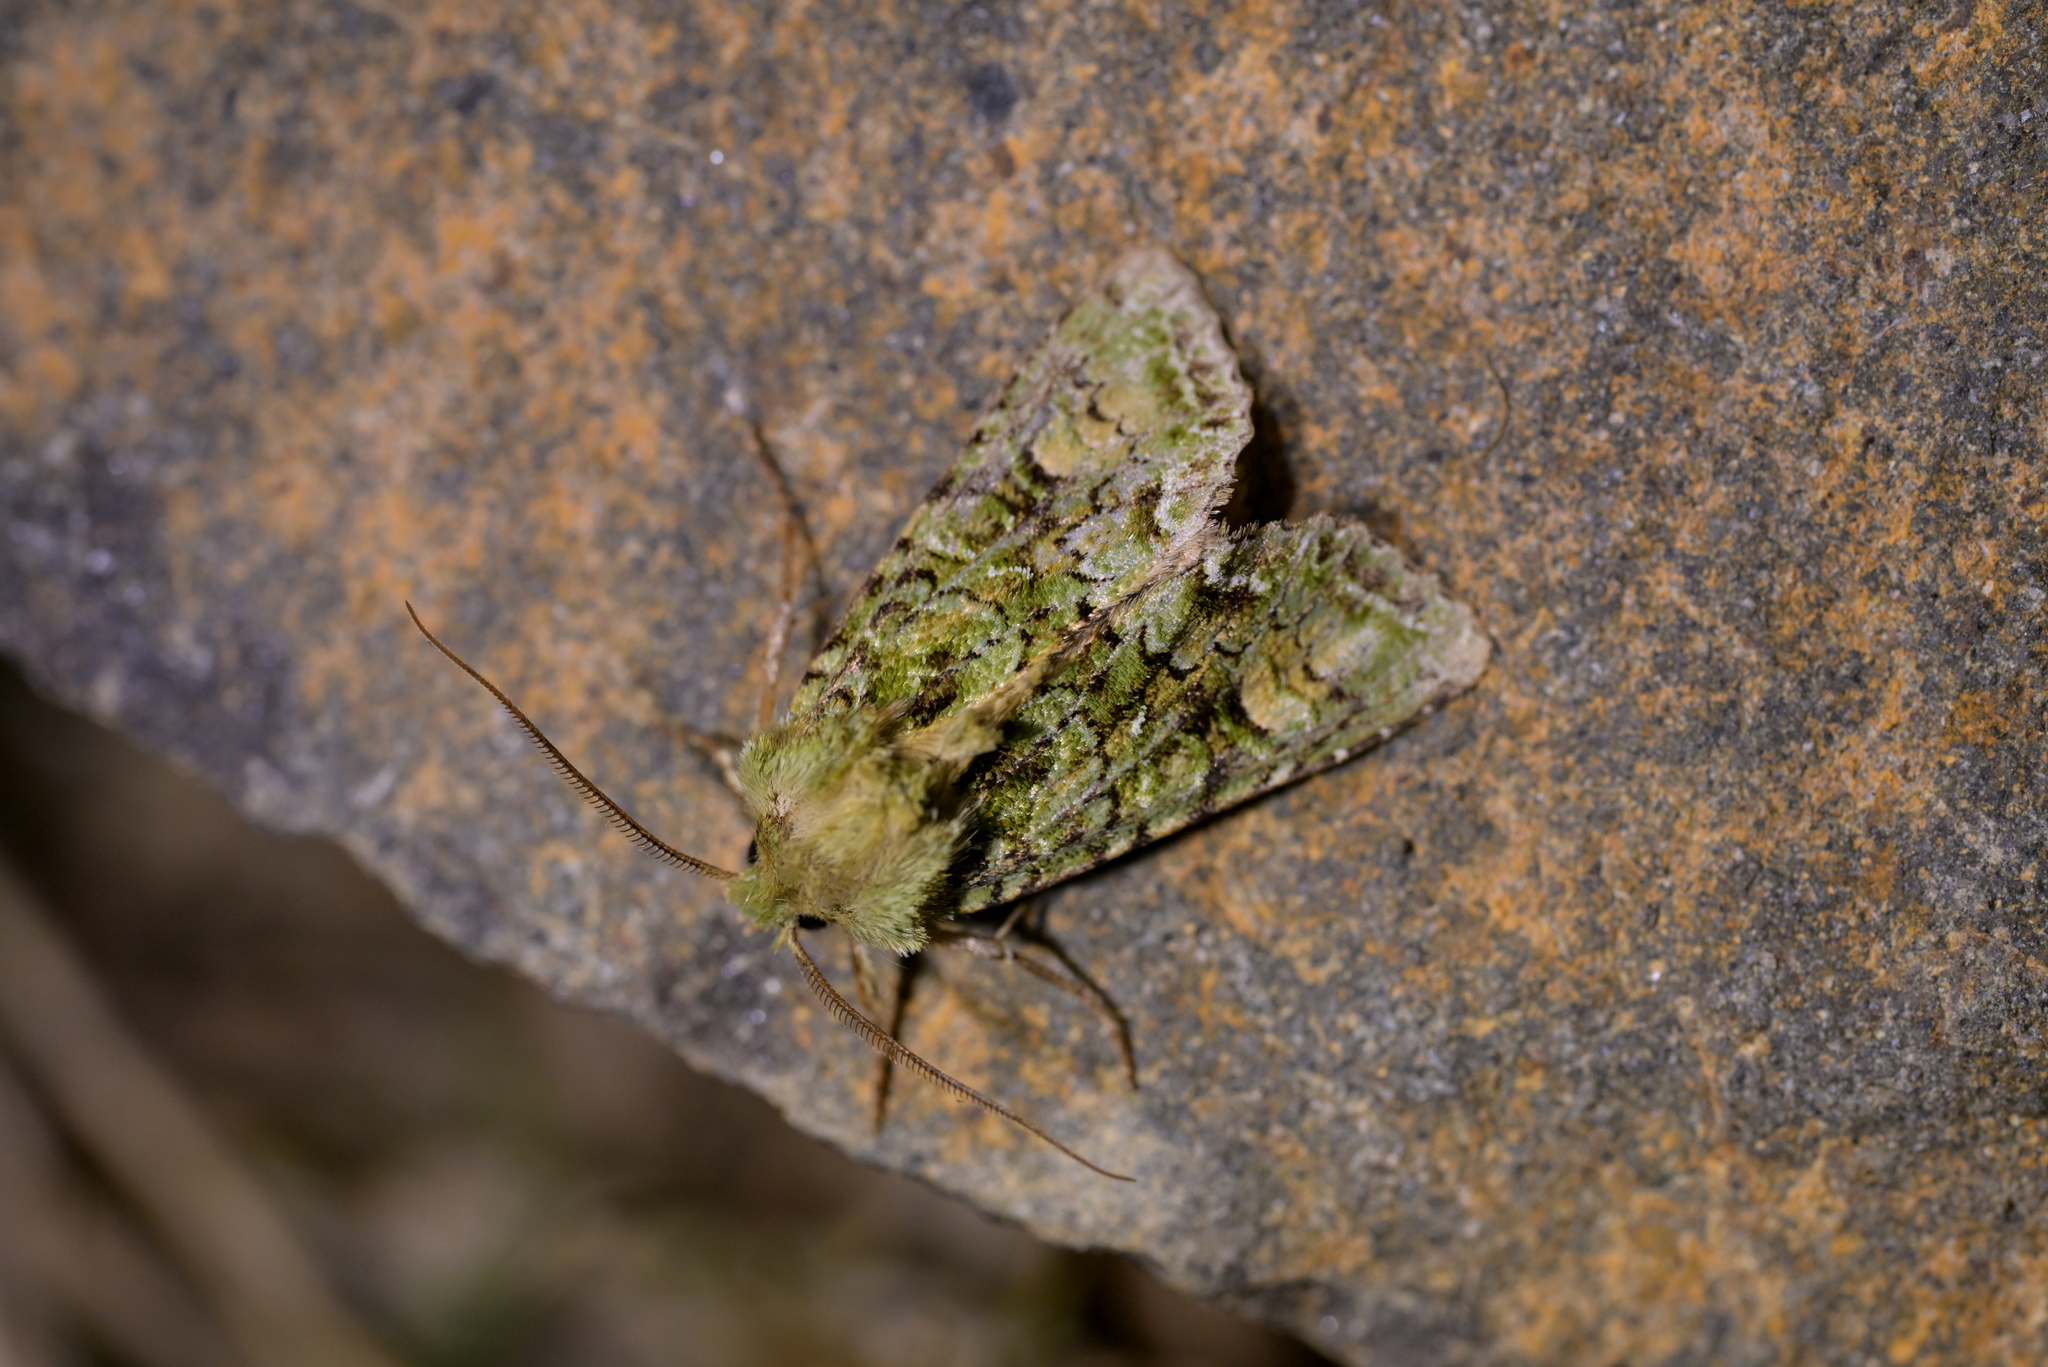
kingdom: Animalia
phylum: Arthropoda
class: Insecta
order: Lepidoptera
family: Noctuidae
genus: Ichneutica
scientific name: Ichneutica
